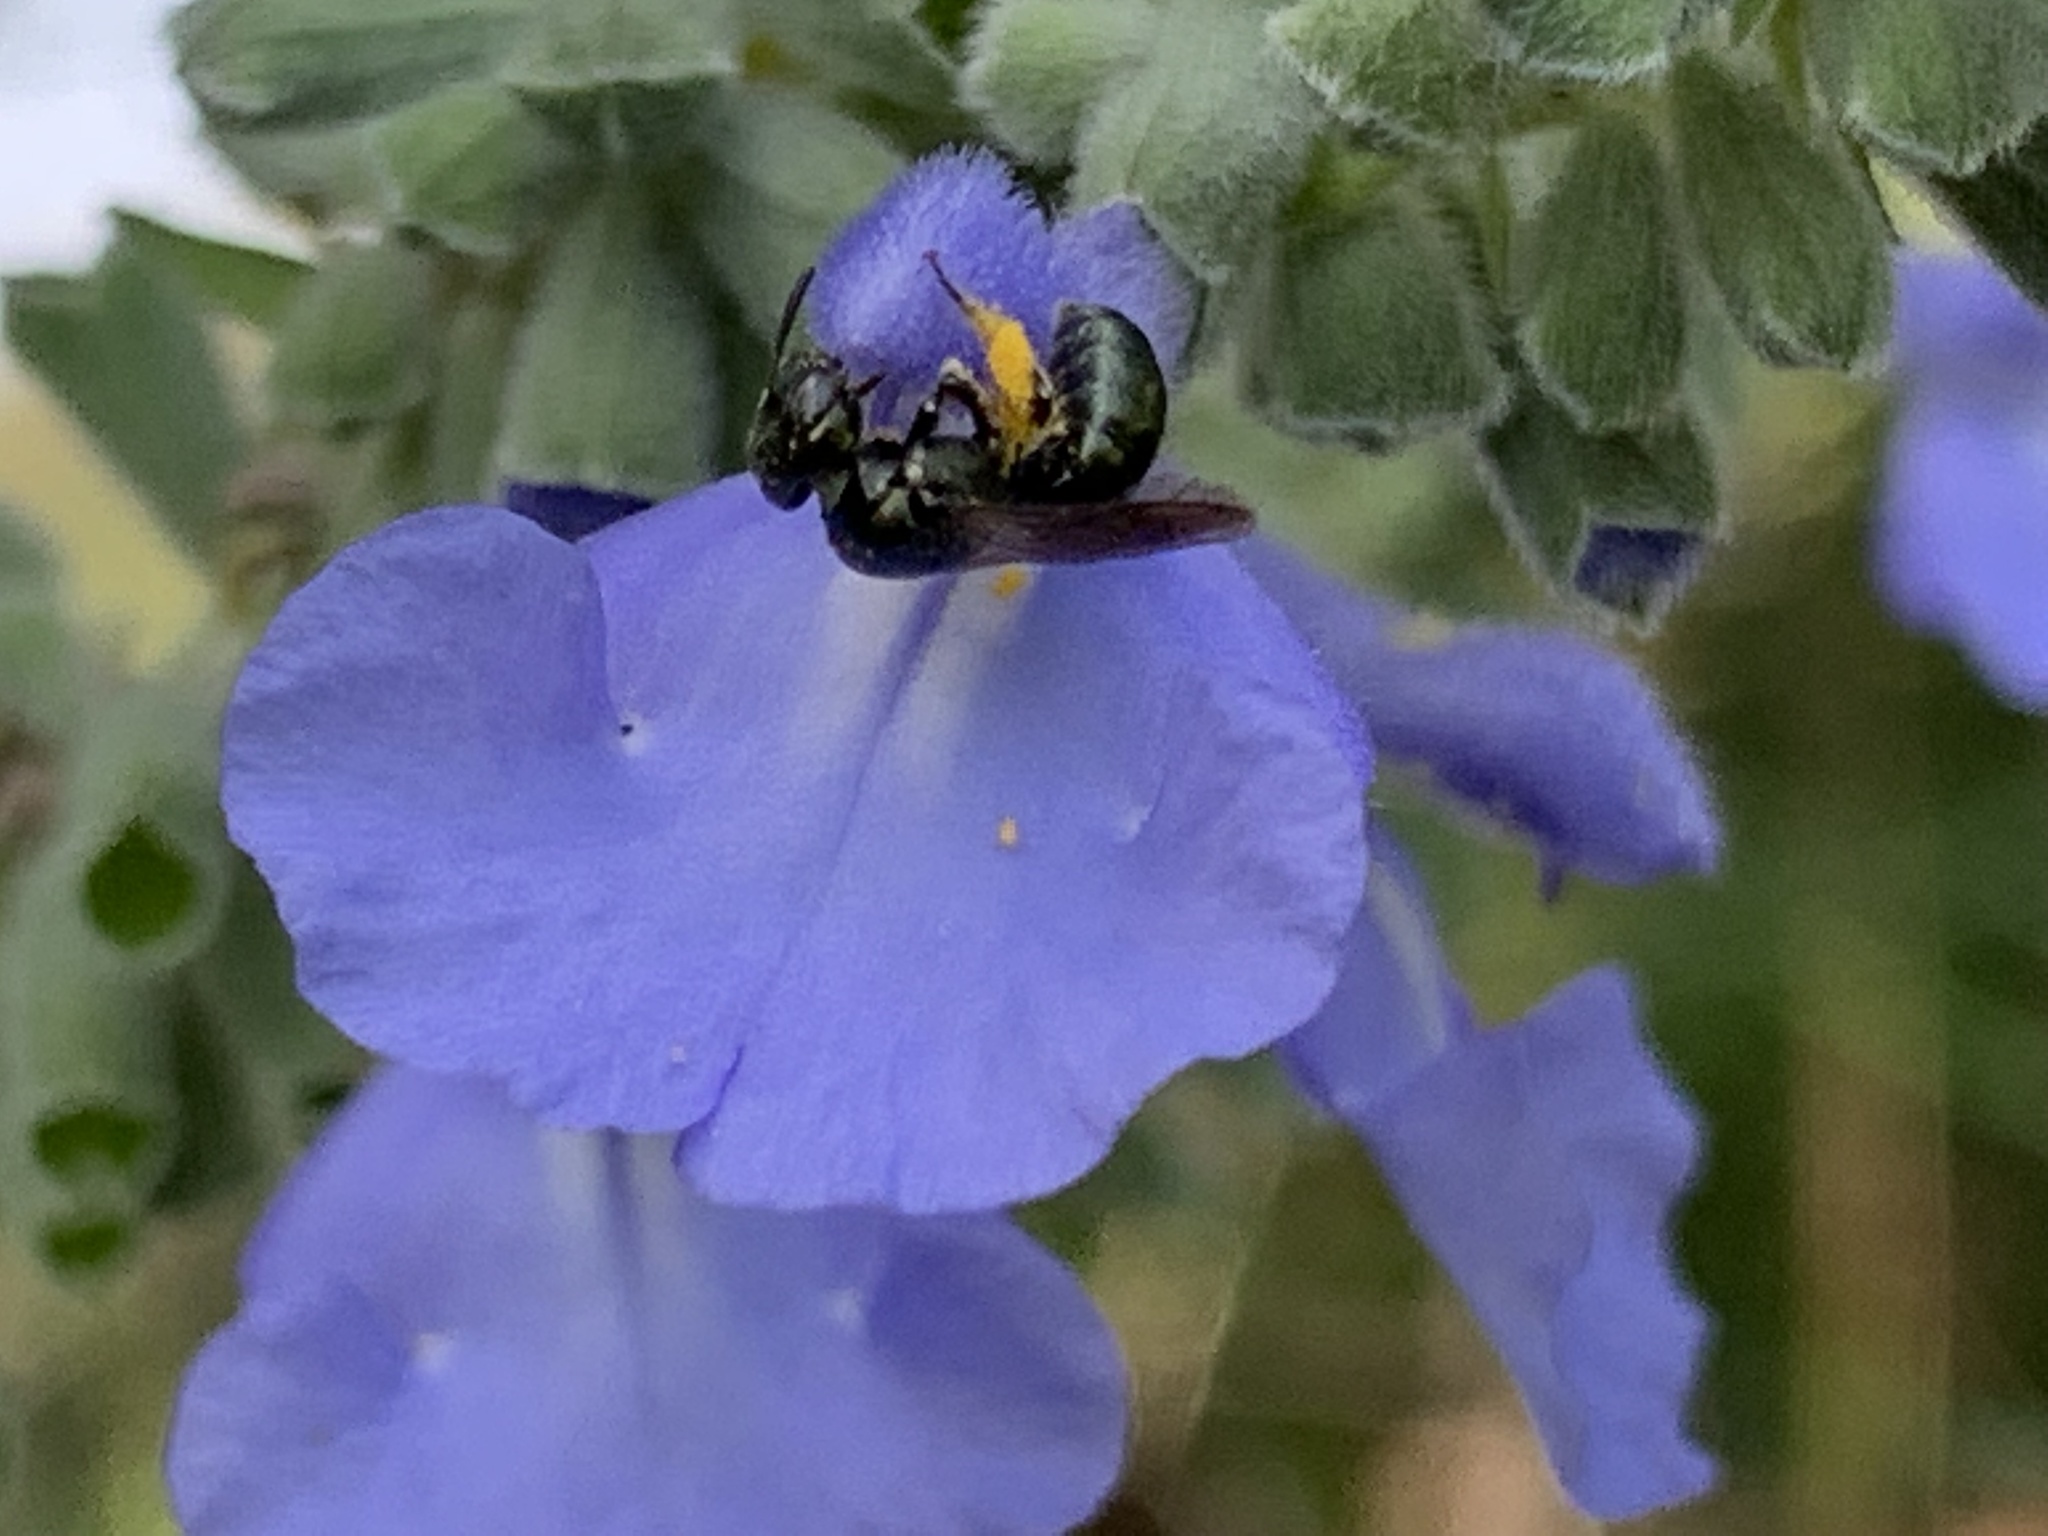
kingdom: Animalia
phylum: Arthropoda
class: Insecta
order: Hymenoptera
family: Apidae
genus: Zadontomerus
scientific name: Zadontomerus
